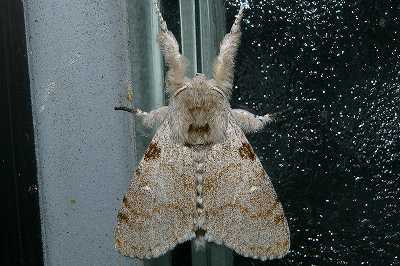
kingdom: Animalia
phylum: Arthropoda
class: Insecta
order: Lepidoptera
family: Erebidae
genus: Calliteara
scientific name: Calliteara lunulata
